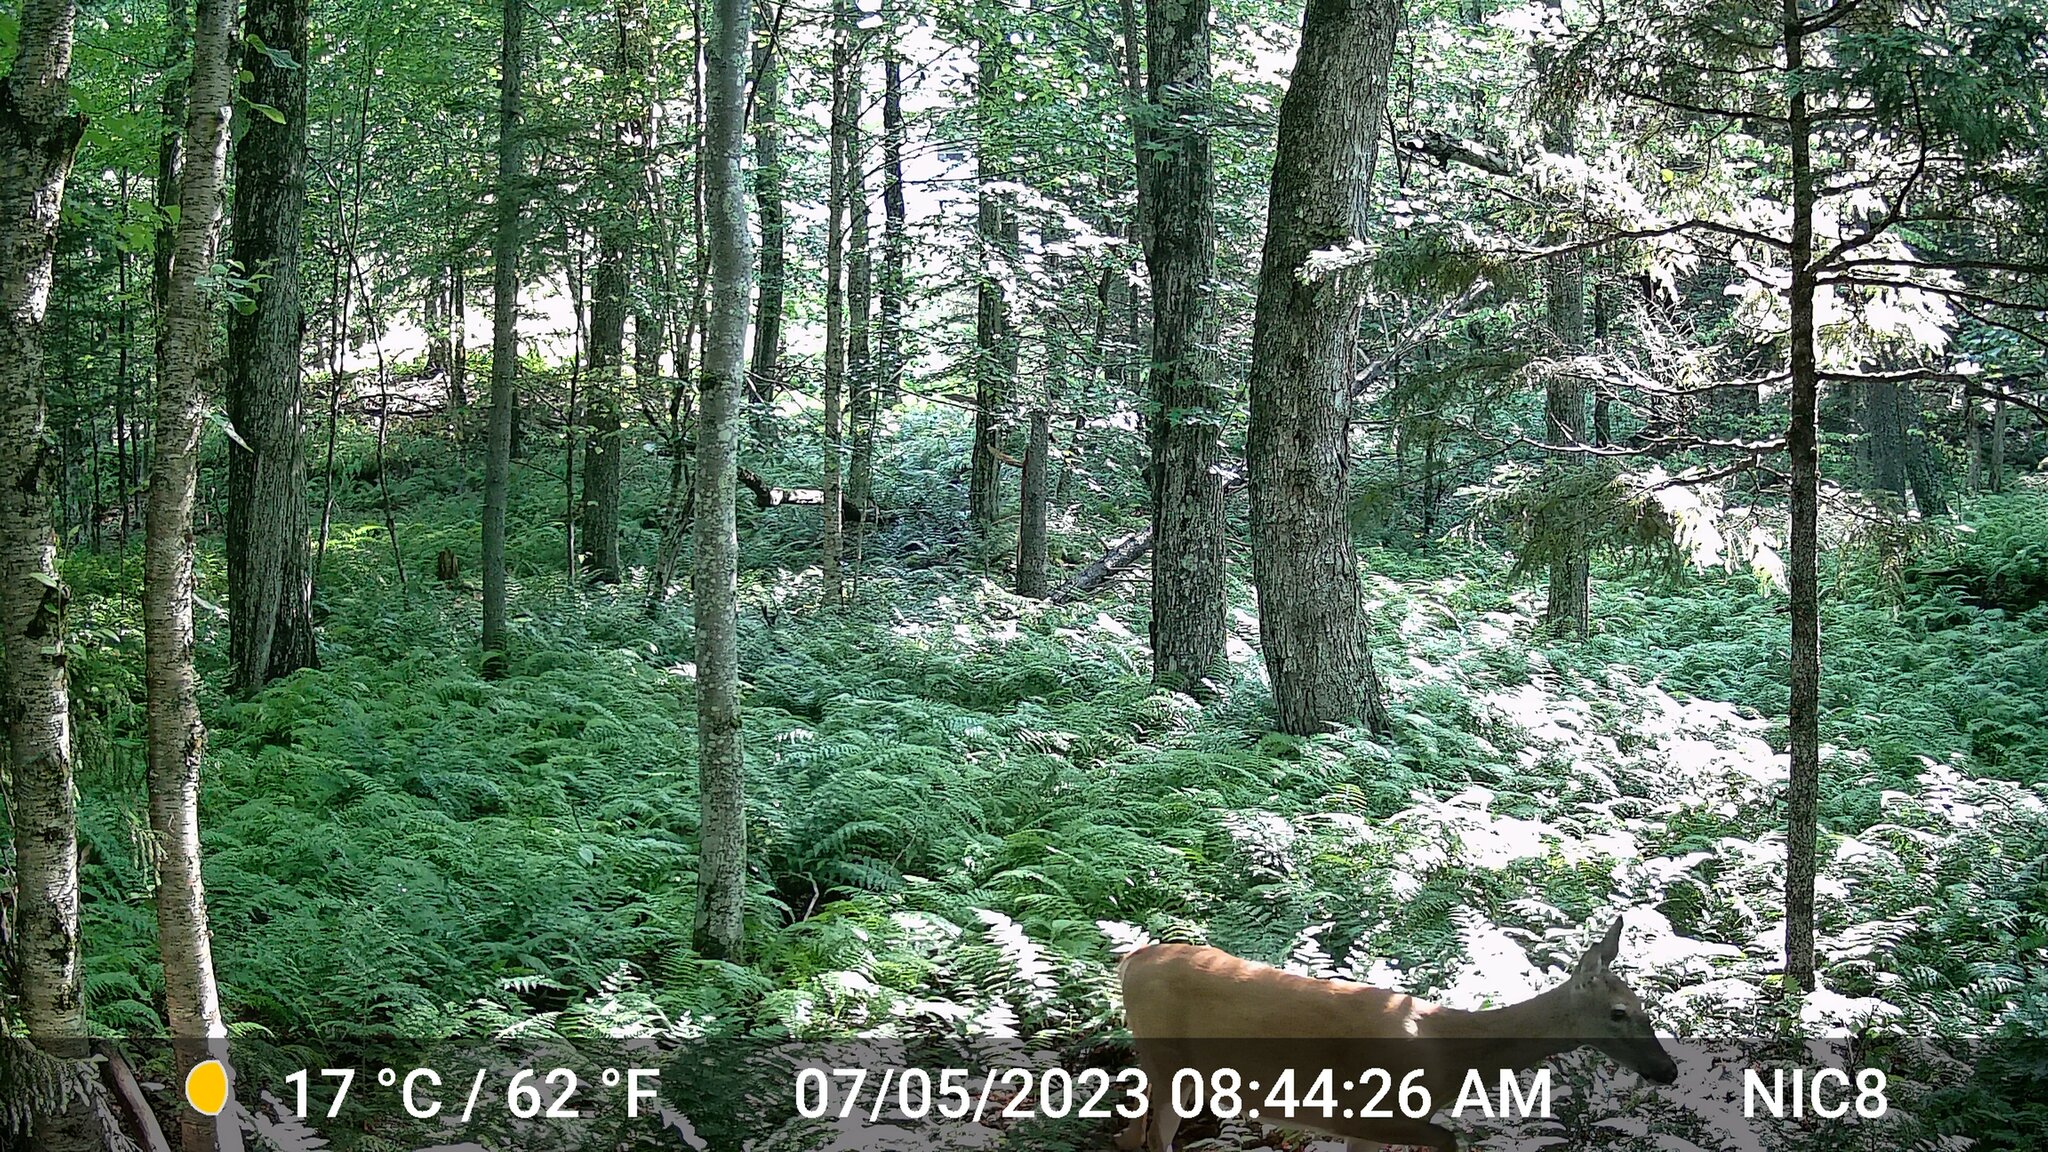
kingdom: Animalia
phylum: Chordata
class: Mammalia
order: Artiodactyla
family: Cervidae
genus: Odocoileus
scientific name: Odocoileus virginianus
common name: White-tailed deer
